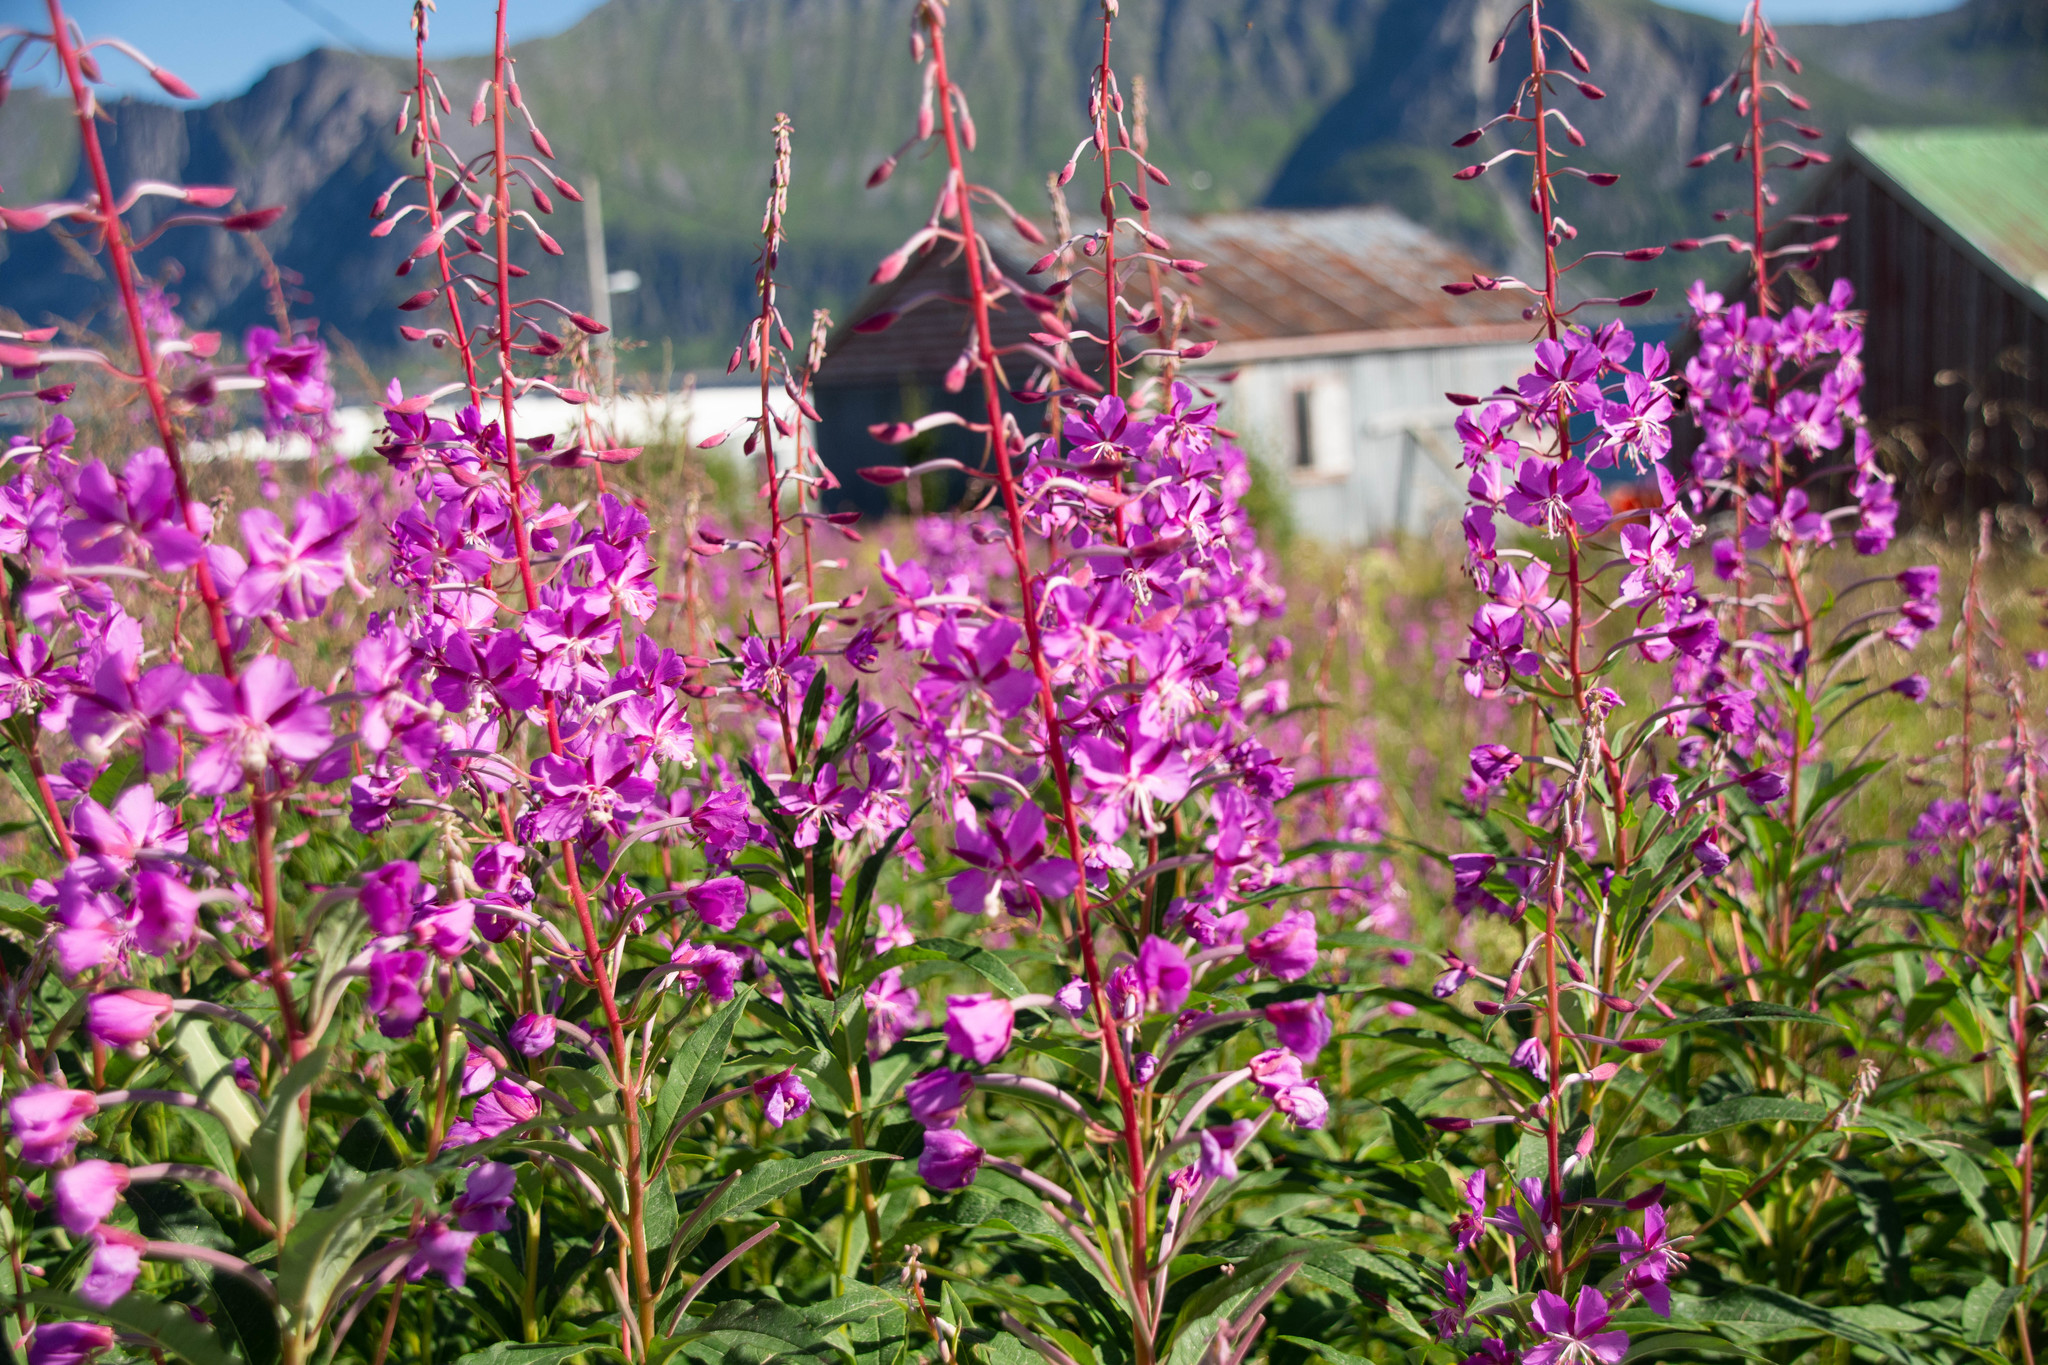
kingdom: Plantae
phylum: Tracheophyta
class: Magnoliopsida
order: Myrtales
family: Onagraceae
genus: Chamaenerion
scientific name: Chamaenerion angustifolium
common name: Fireweed
